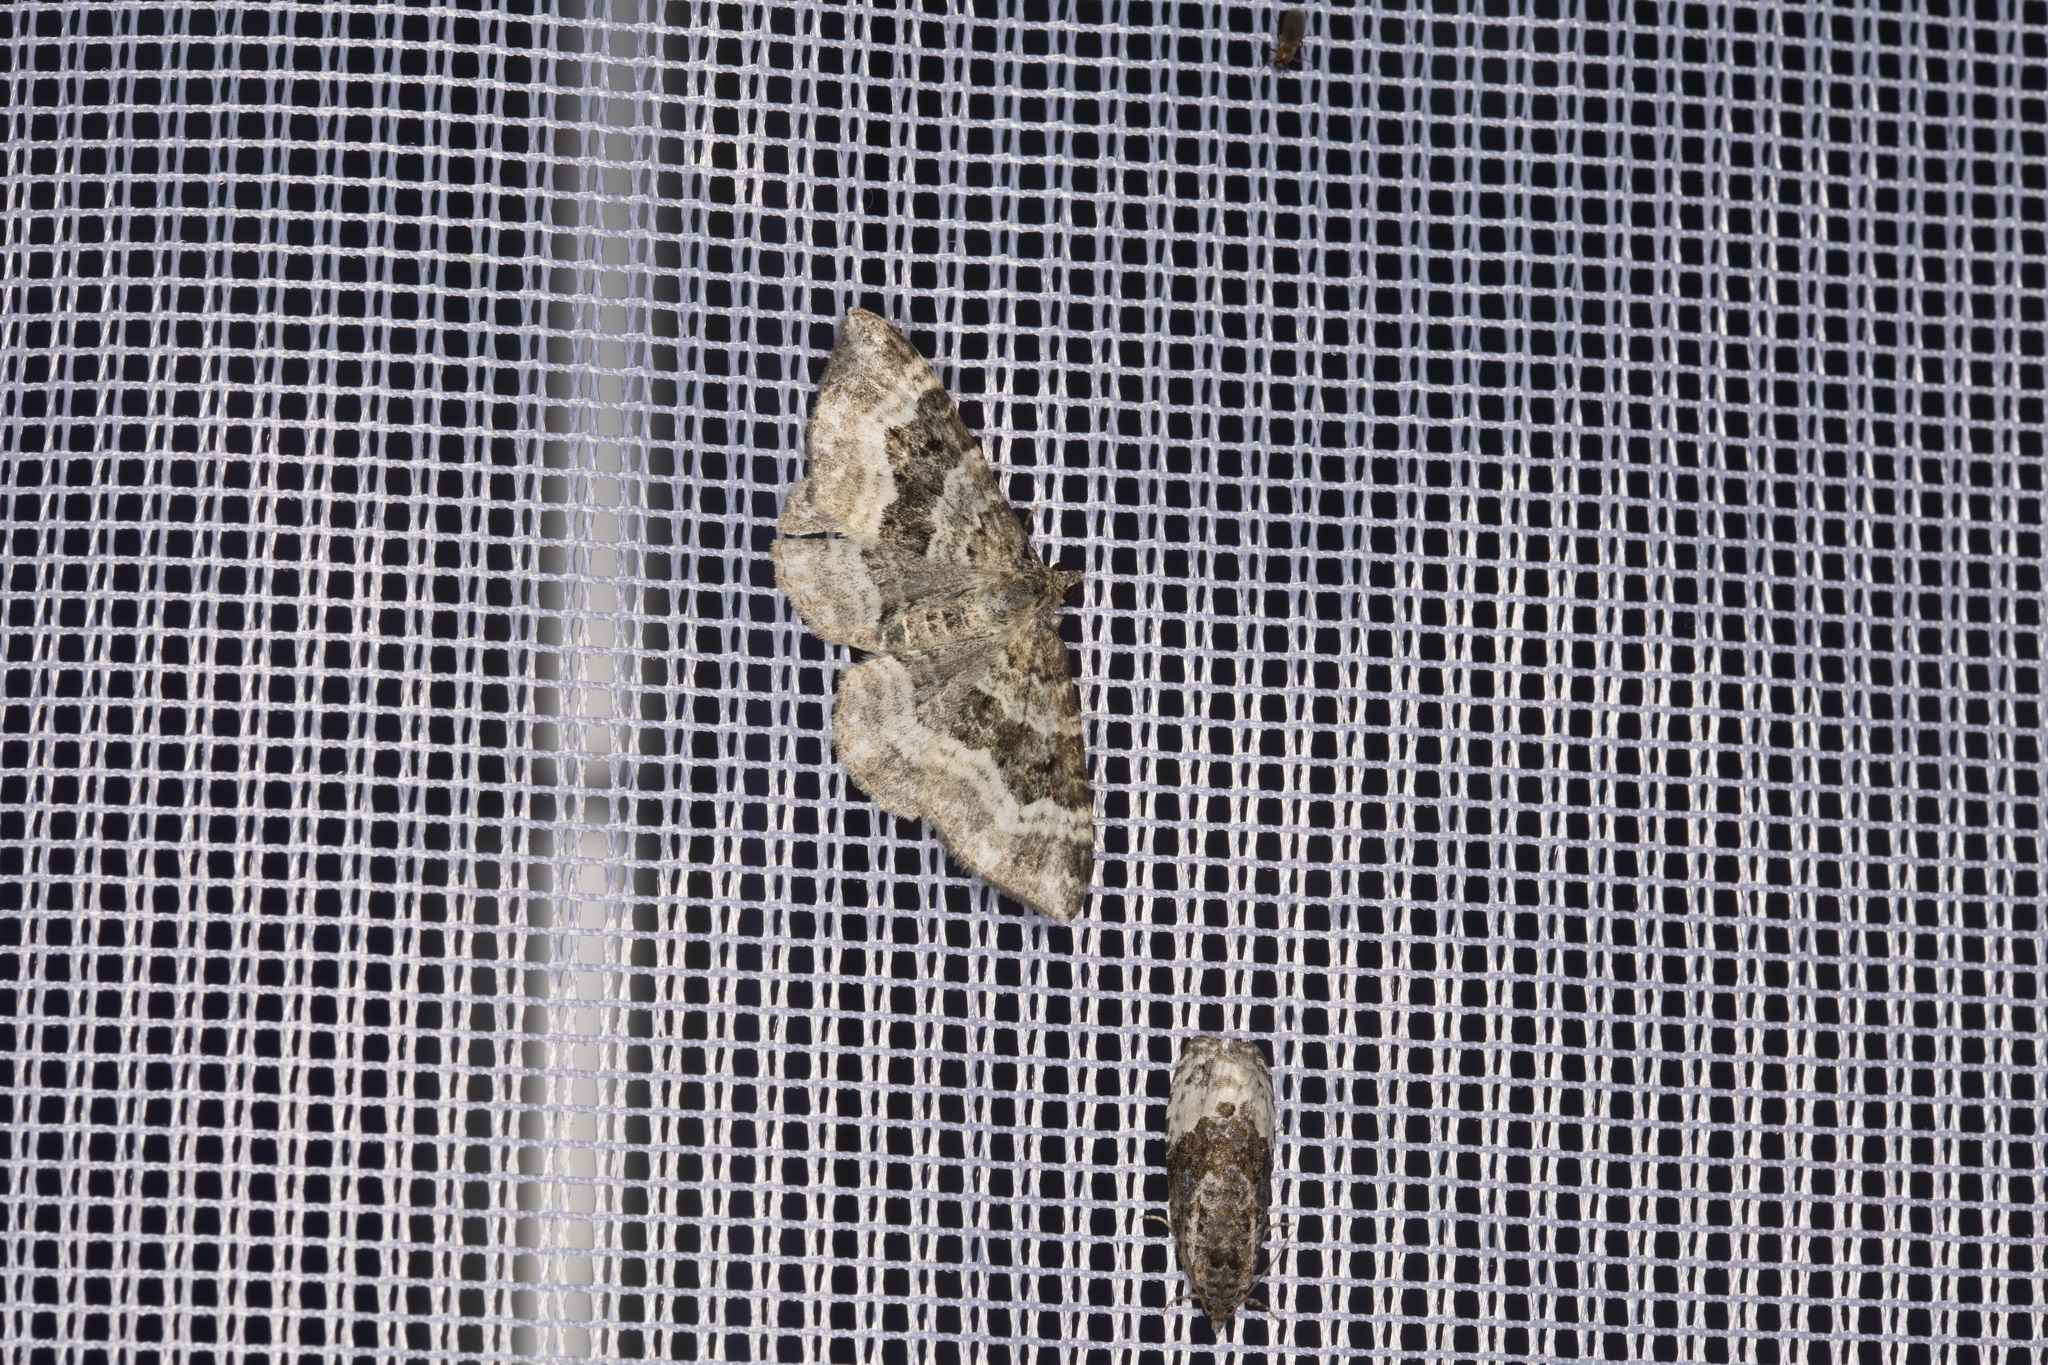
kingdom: Animalia
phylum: Arthropoda
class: Insecta
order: Lepidoptera
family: Geometridae
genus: Epirrhoe
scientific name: Epirrhoe alternata
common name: Common carpet
